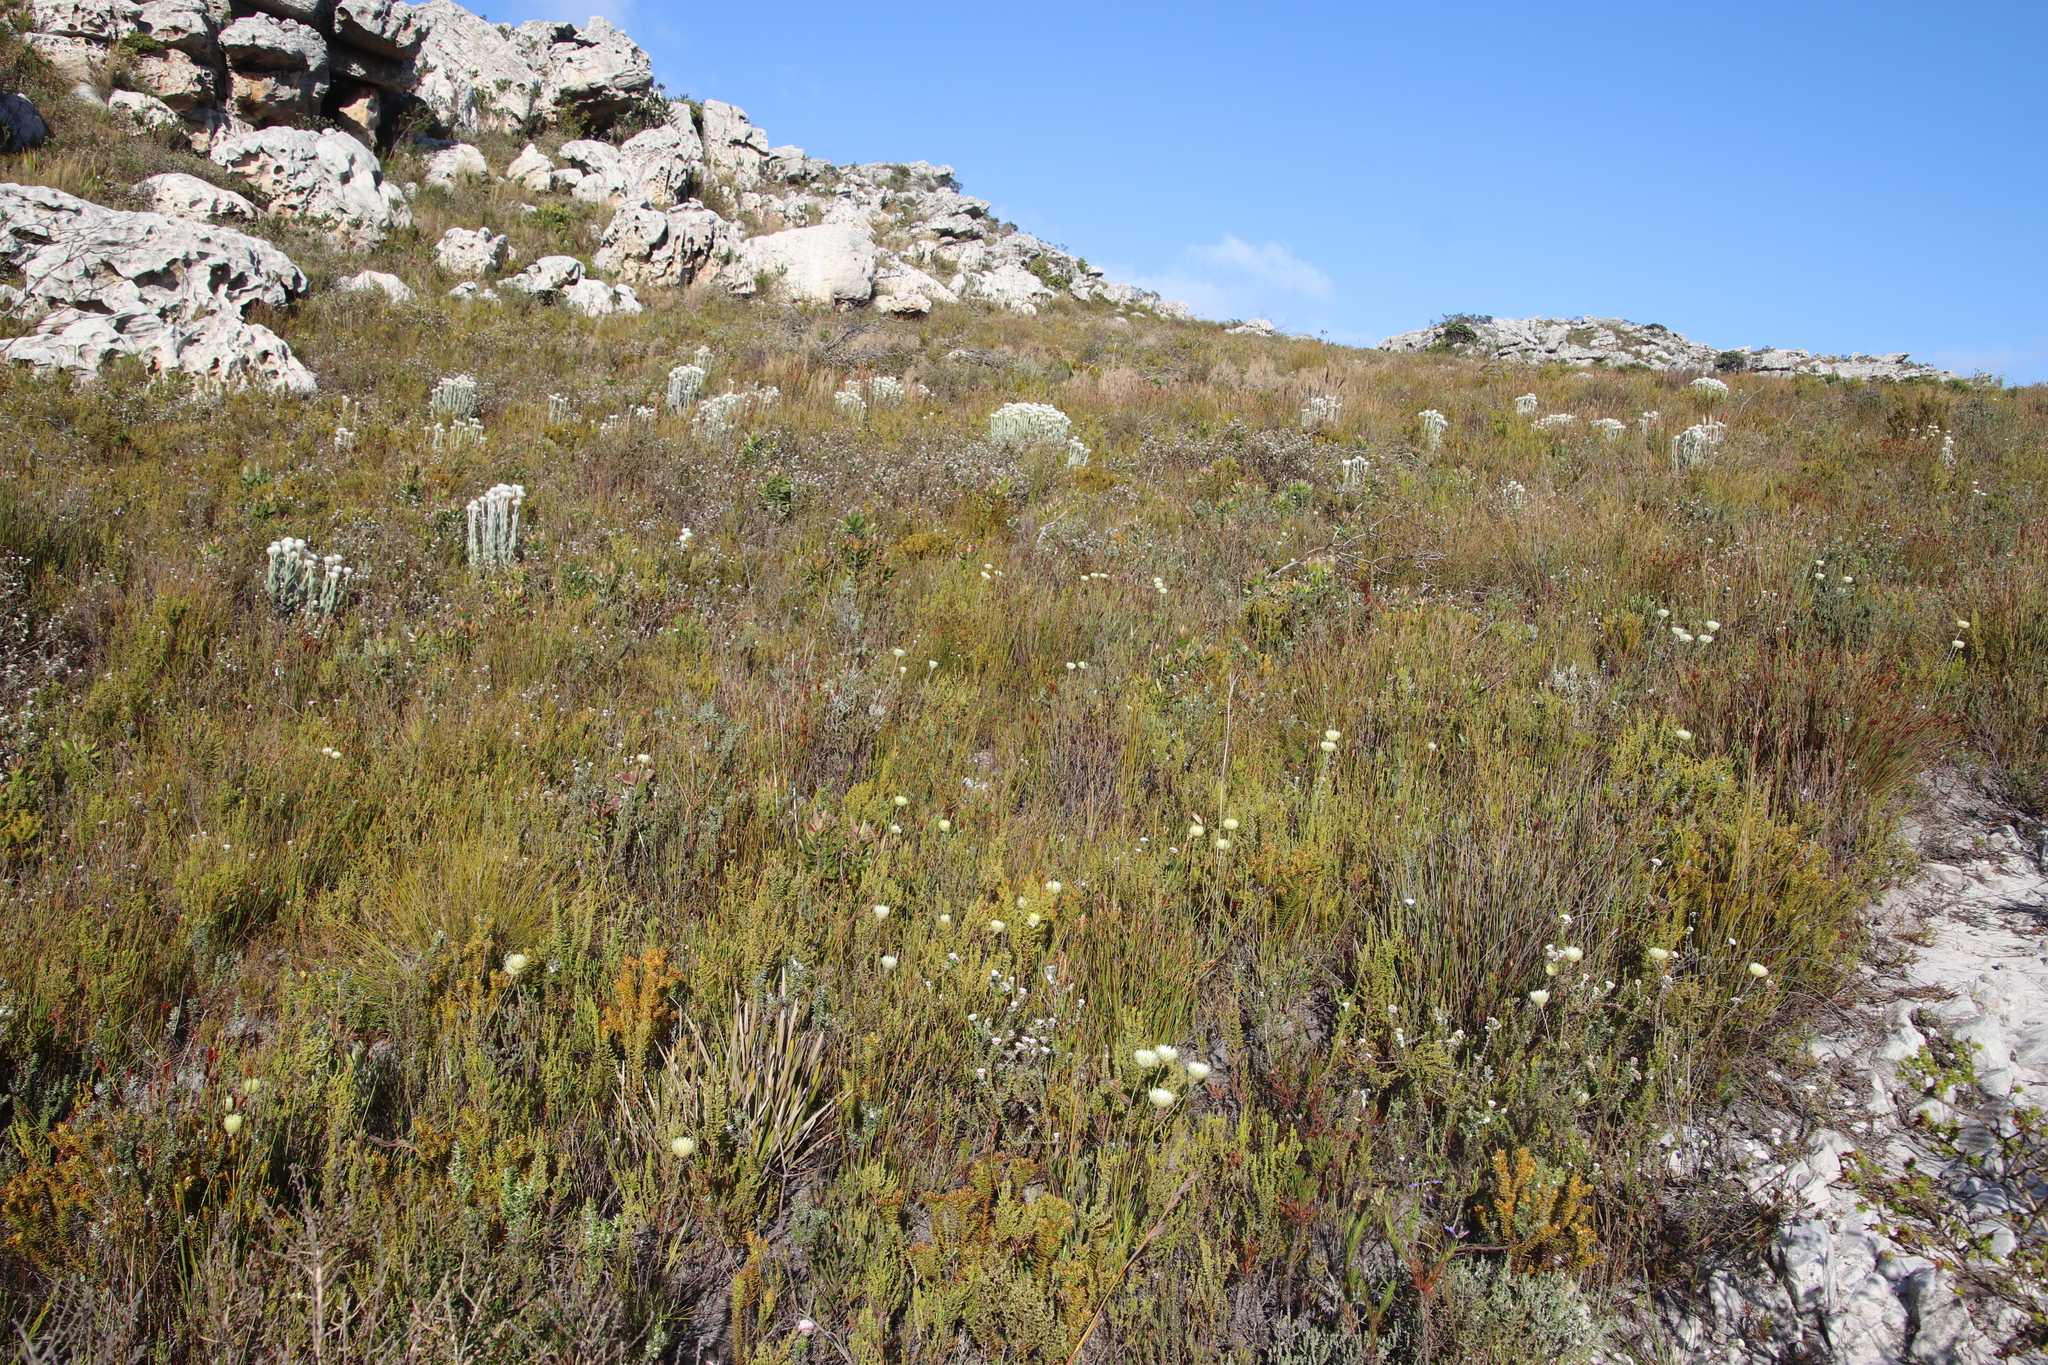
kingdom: Plantae
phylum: Tracheophyta
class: Magnoliopsida
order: Asterales
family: Asteraceae
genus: Edmondia
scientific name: Edmondia sesamoides
